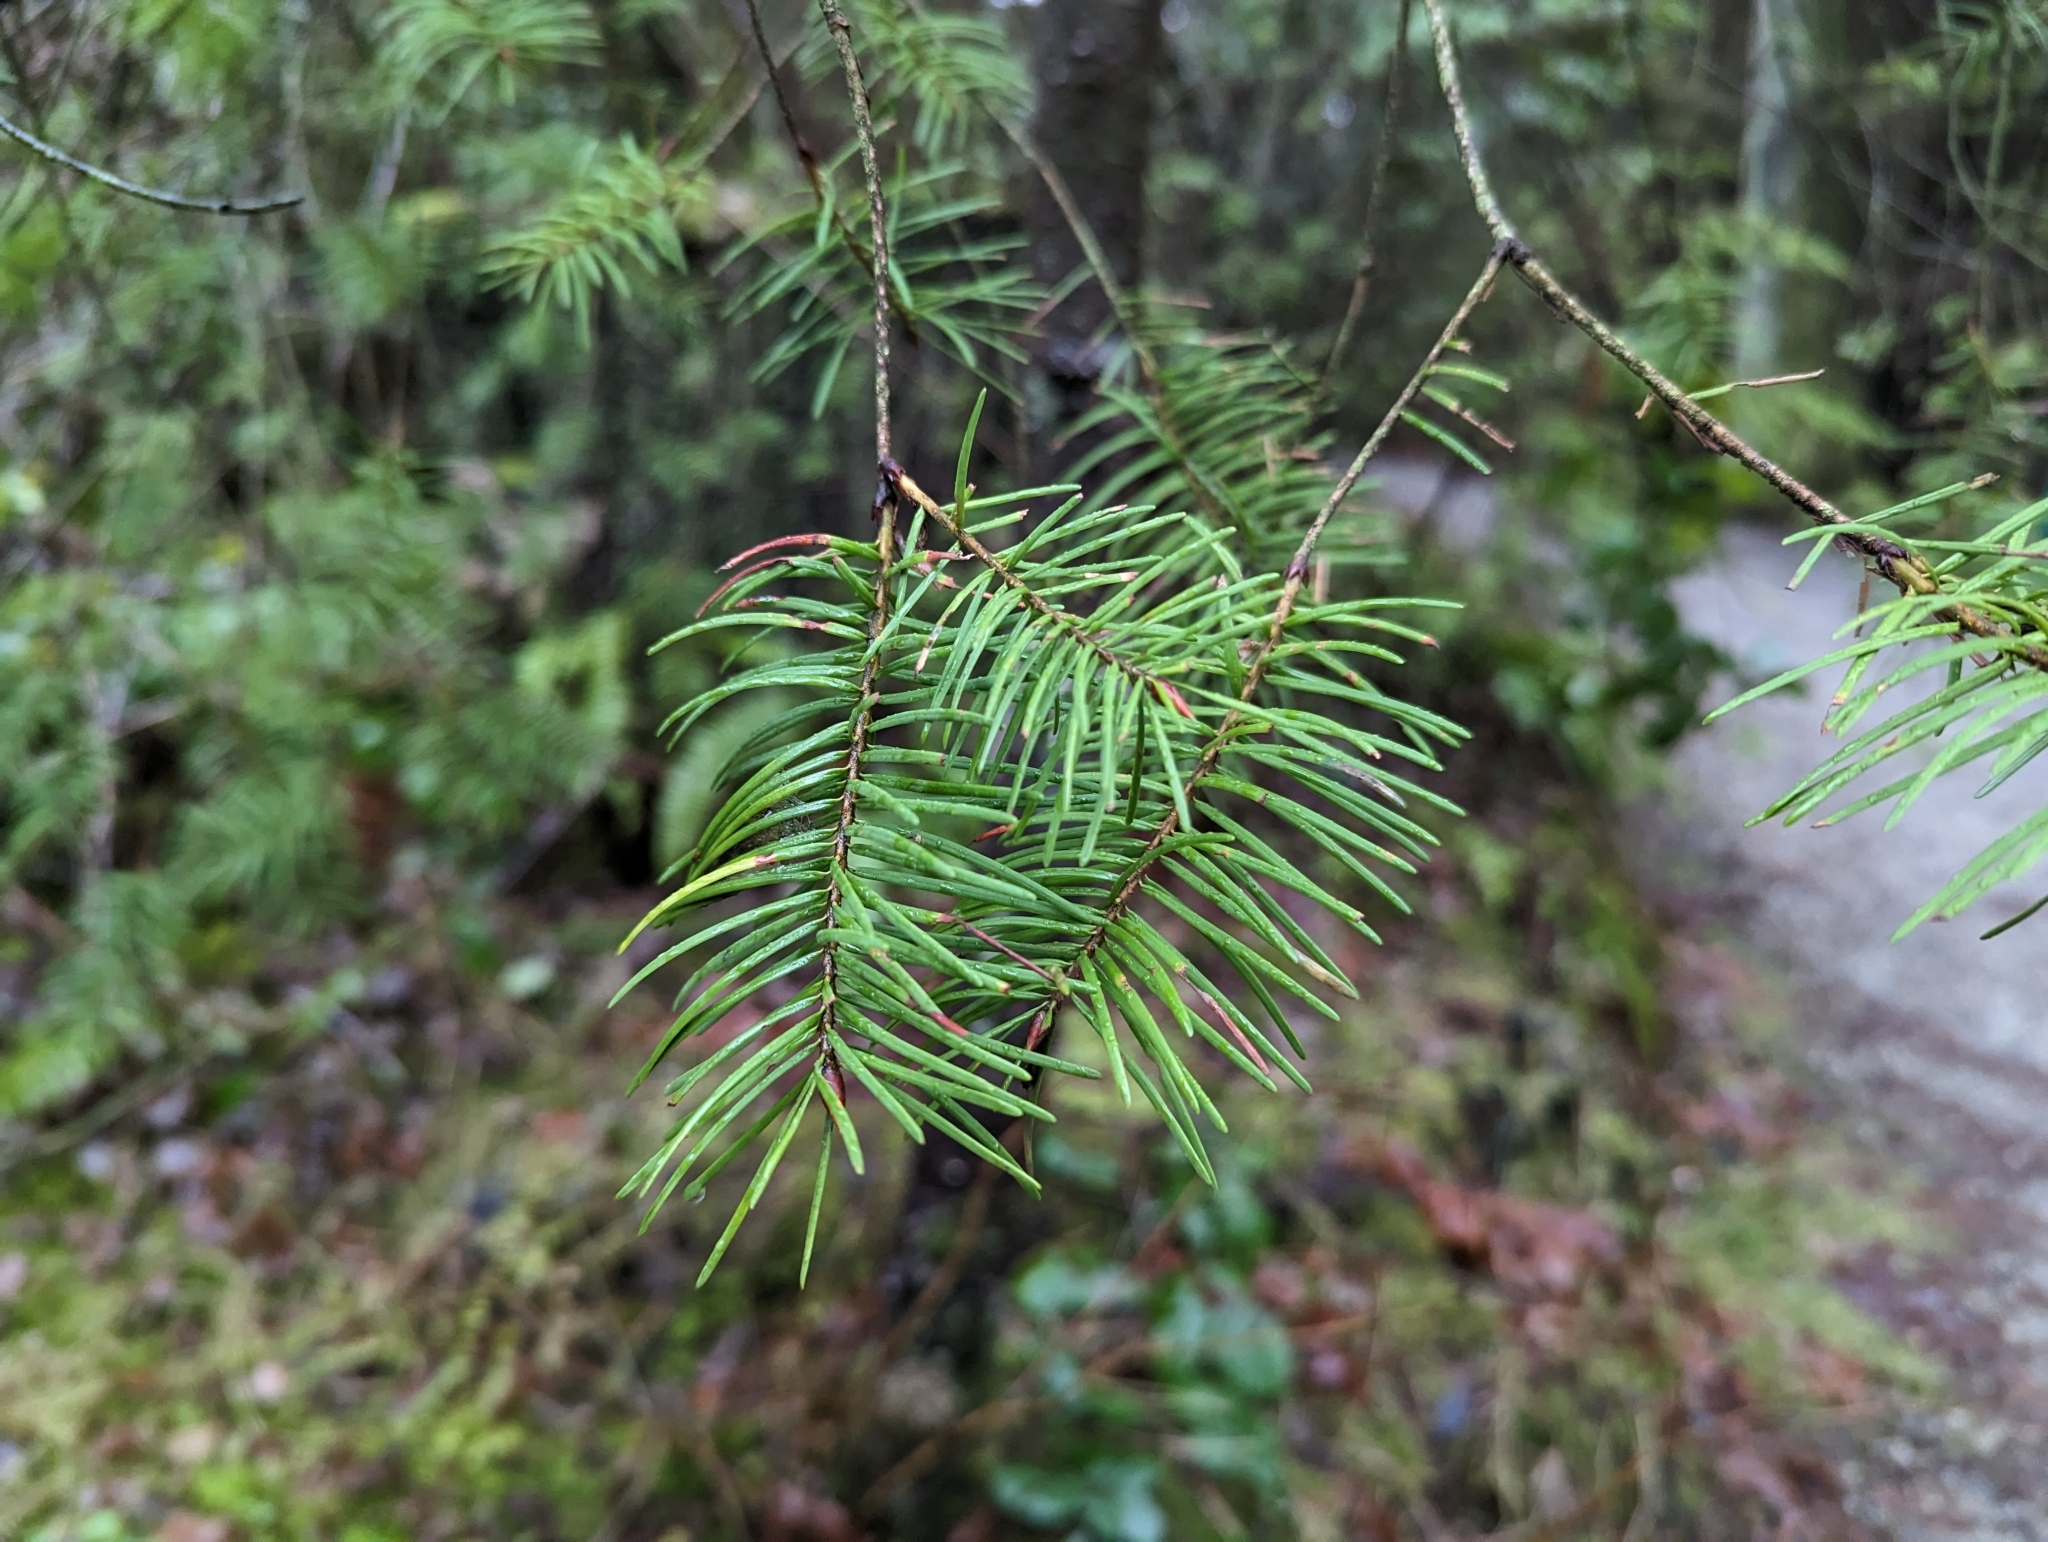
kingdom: Plantae
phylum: Tracheophyta
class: Pinopsida
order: Pinales
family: Pinaceae
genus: Pseudotsuga
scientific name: Pseudotsuga menziesii
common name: Douglas fir
